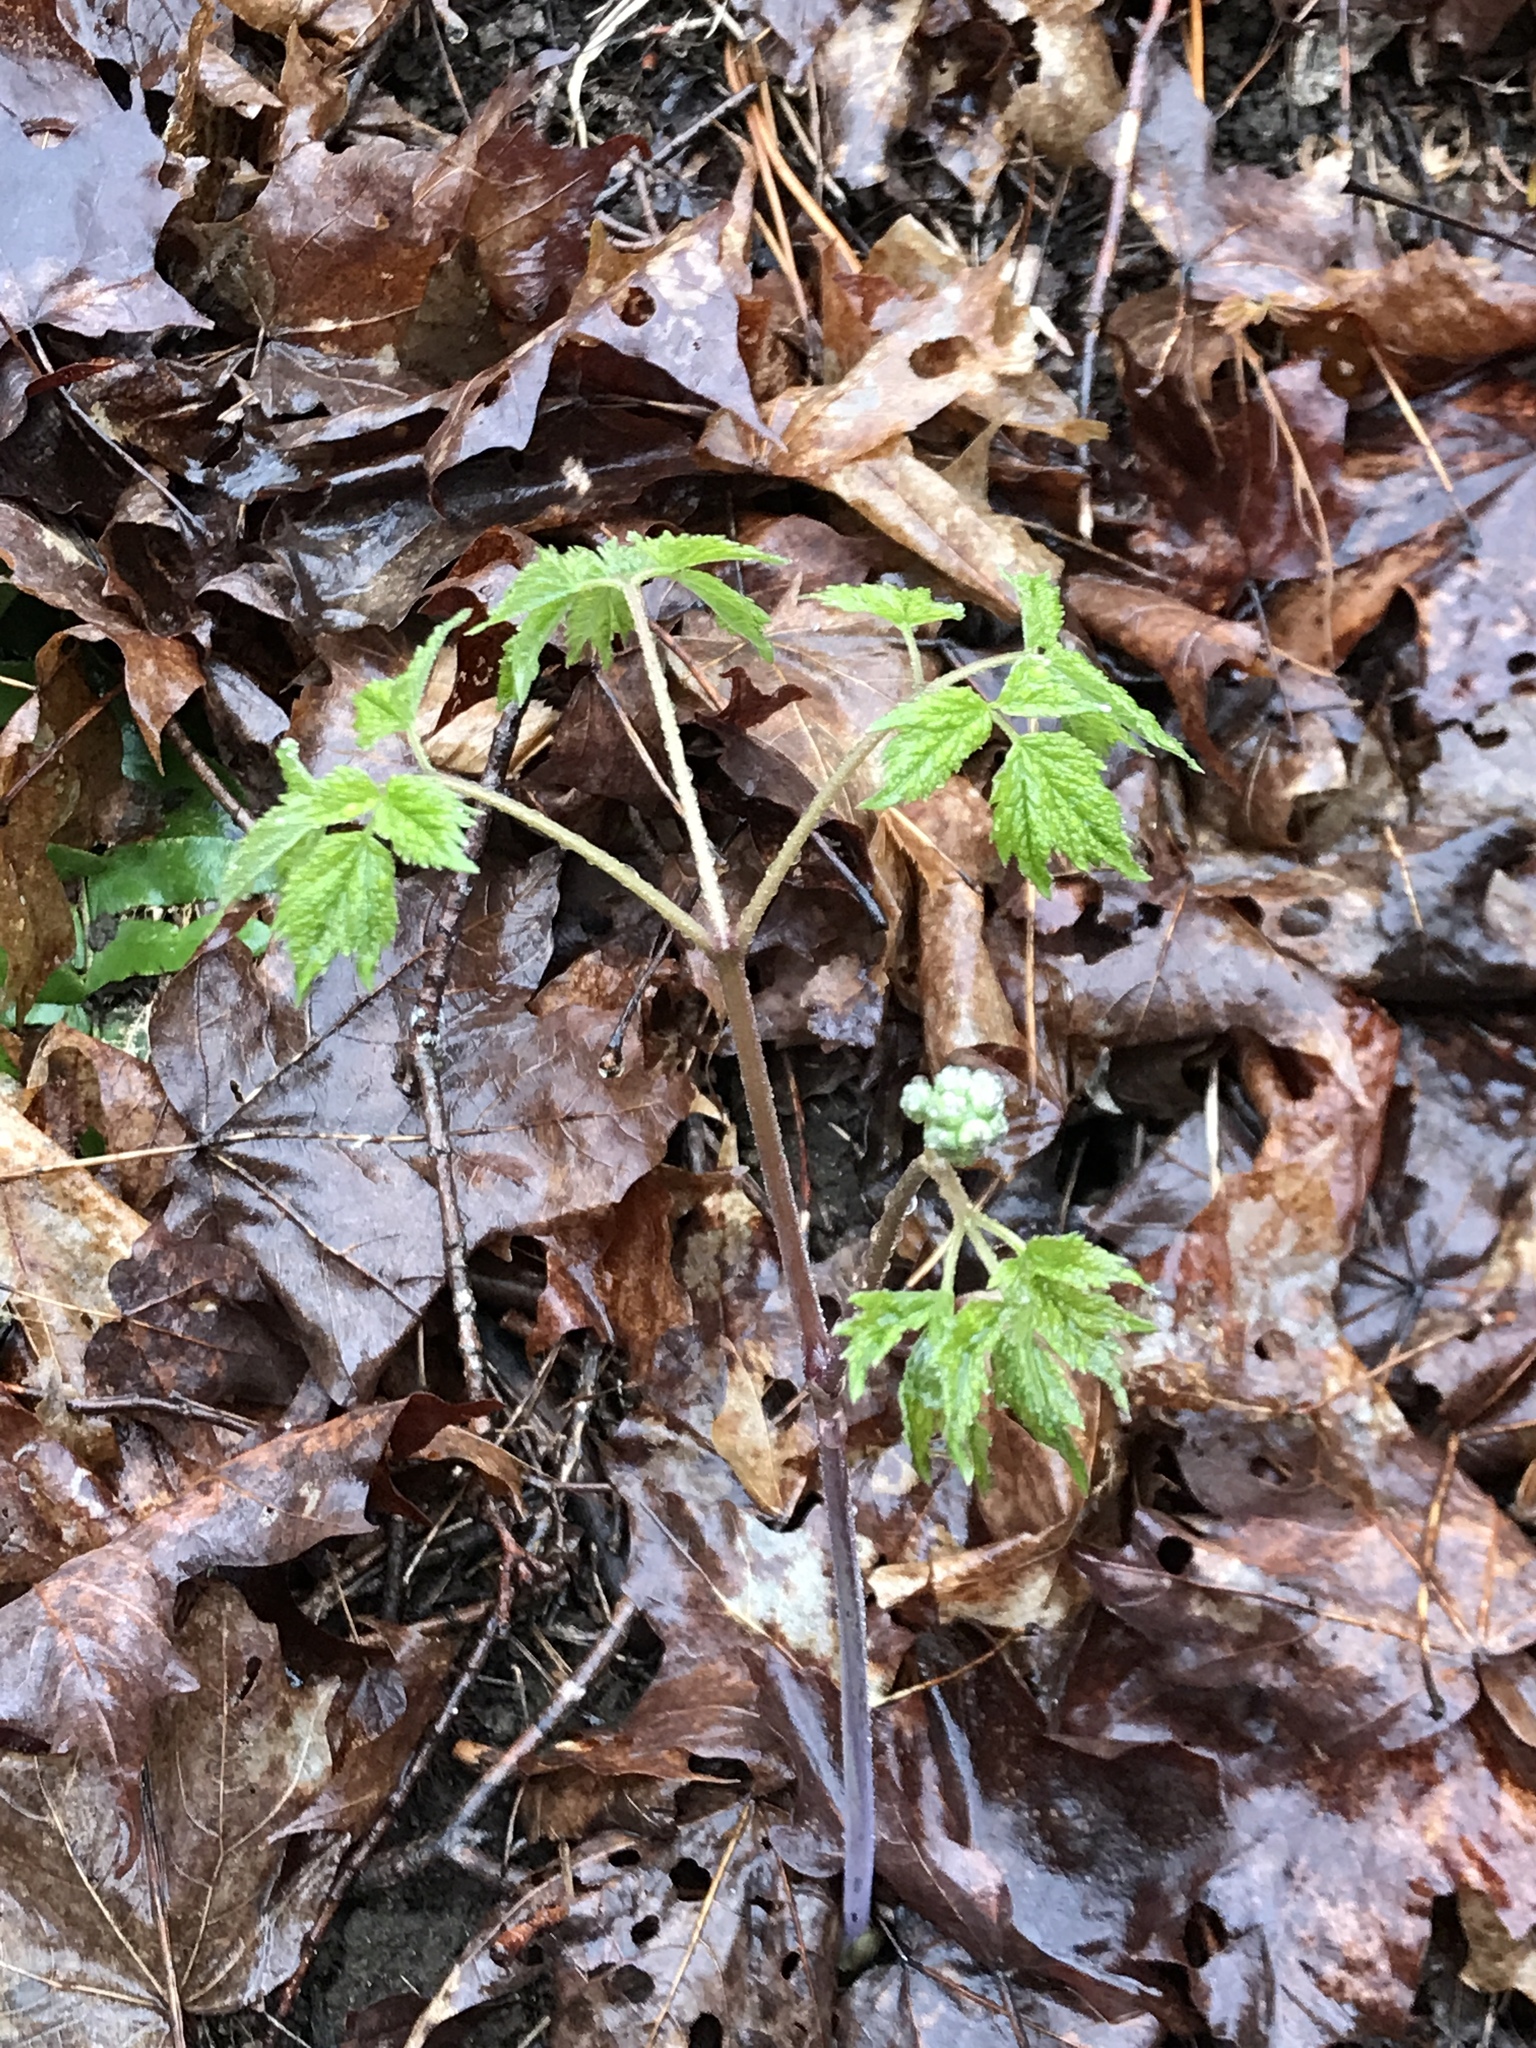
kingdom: Plantae
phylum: Tracheophyta
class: Magnoliopsida
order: Ranunculales
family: Ranunculaceae
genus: Actaea
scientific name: Actaea pachypoda
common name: Doll's-eyes
